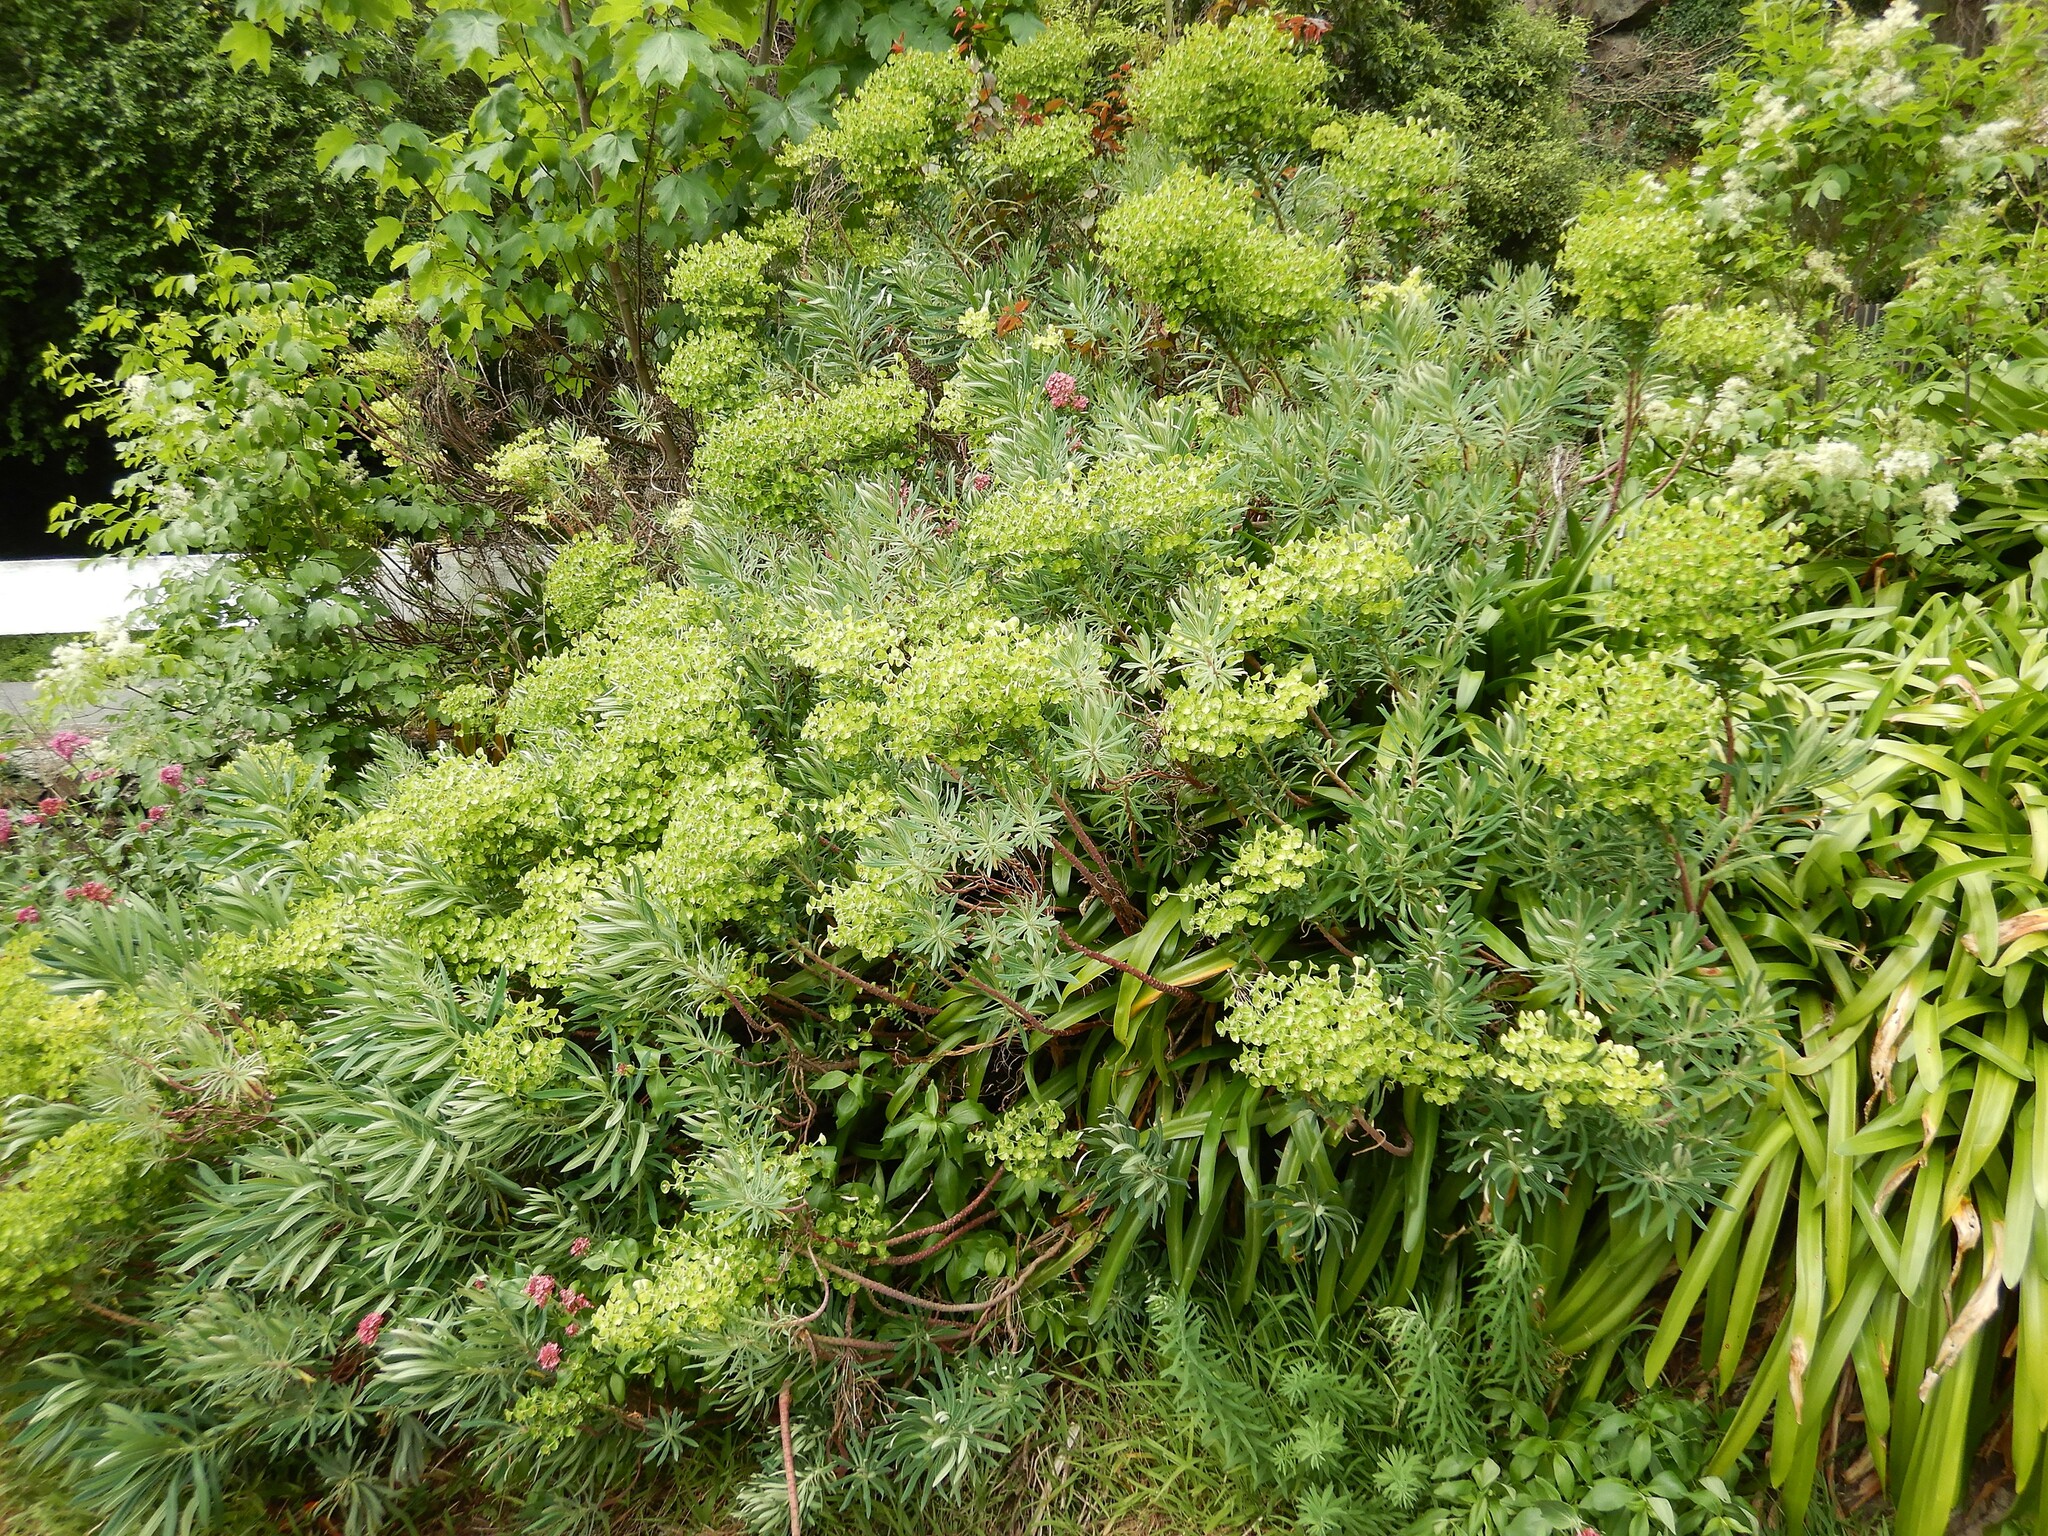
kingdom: Plantae
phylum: Tracheophyta
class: Magnoliopsida
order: Malpighiales
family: Euphorbiaceae
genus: Euphorbia
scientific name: Euphorbia characias
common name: Mediterranean spurge
